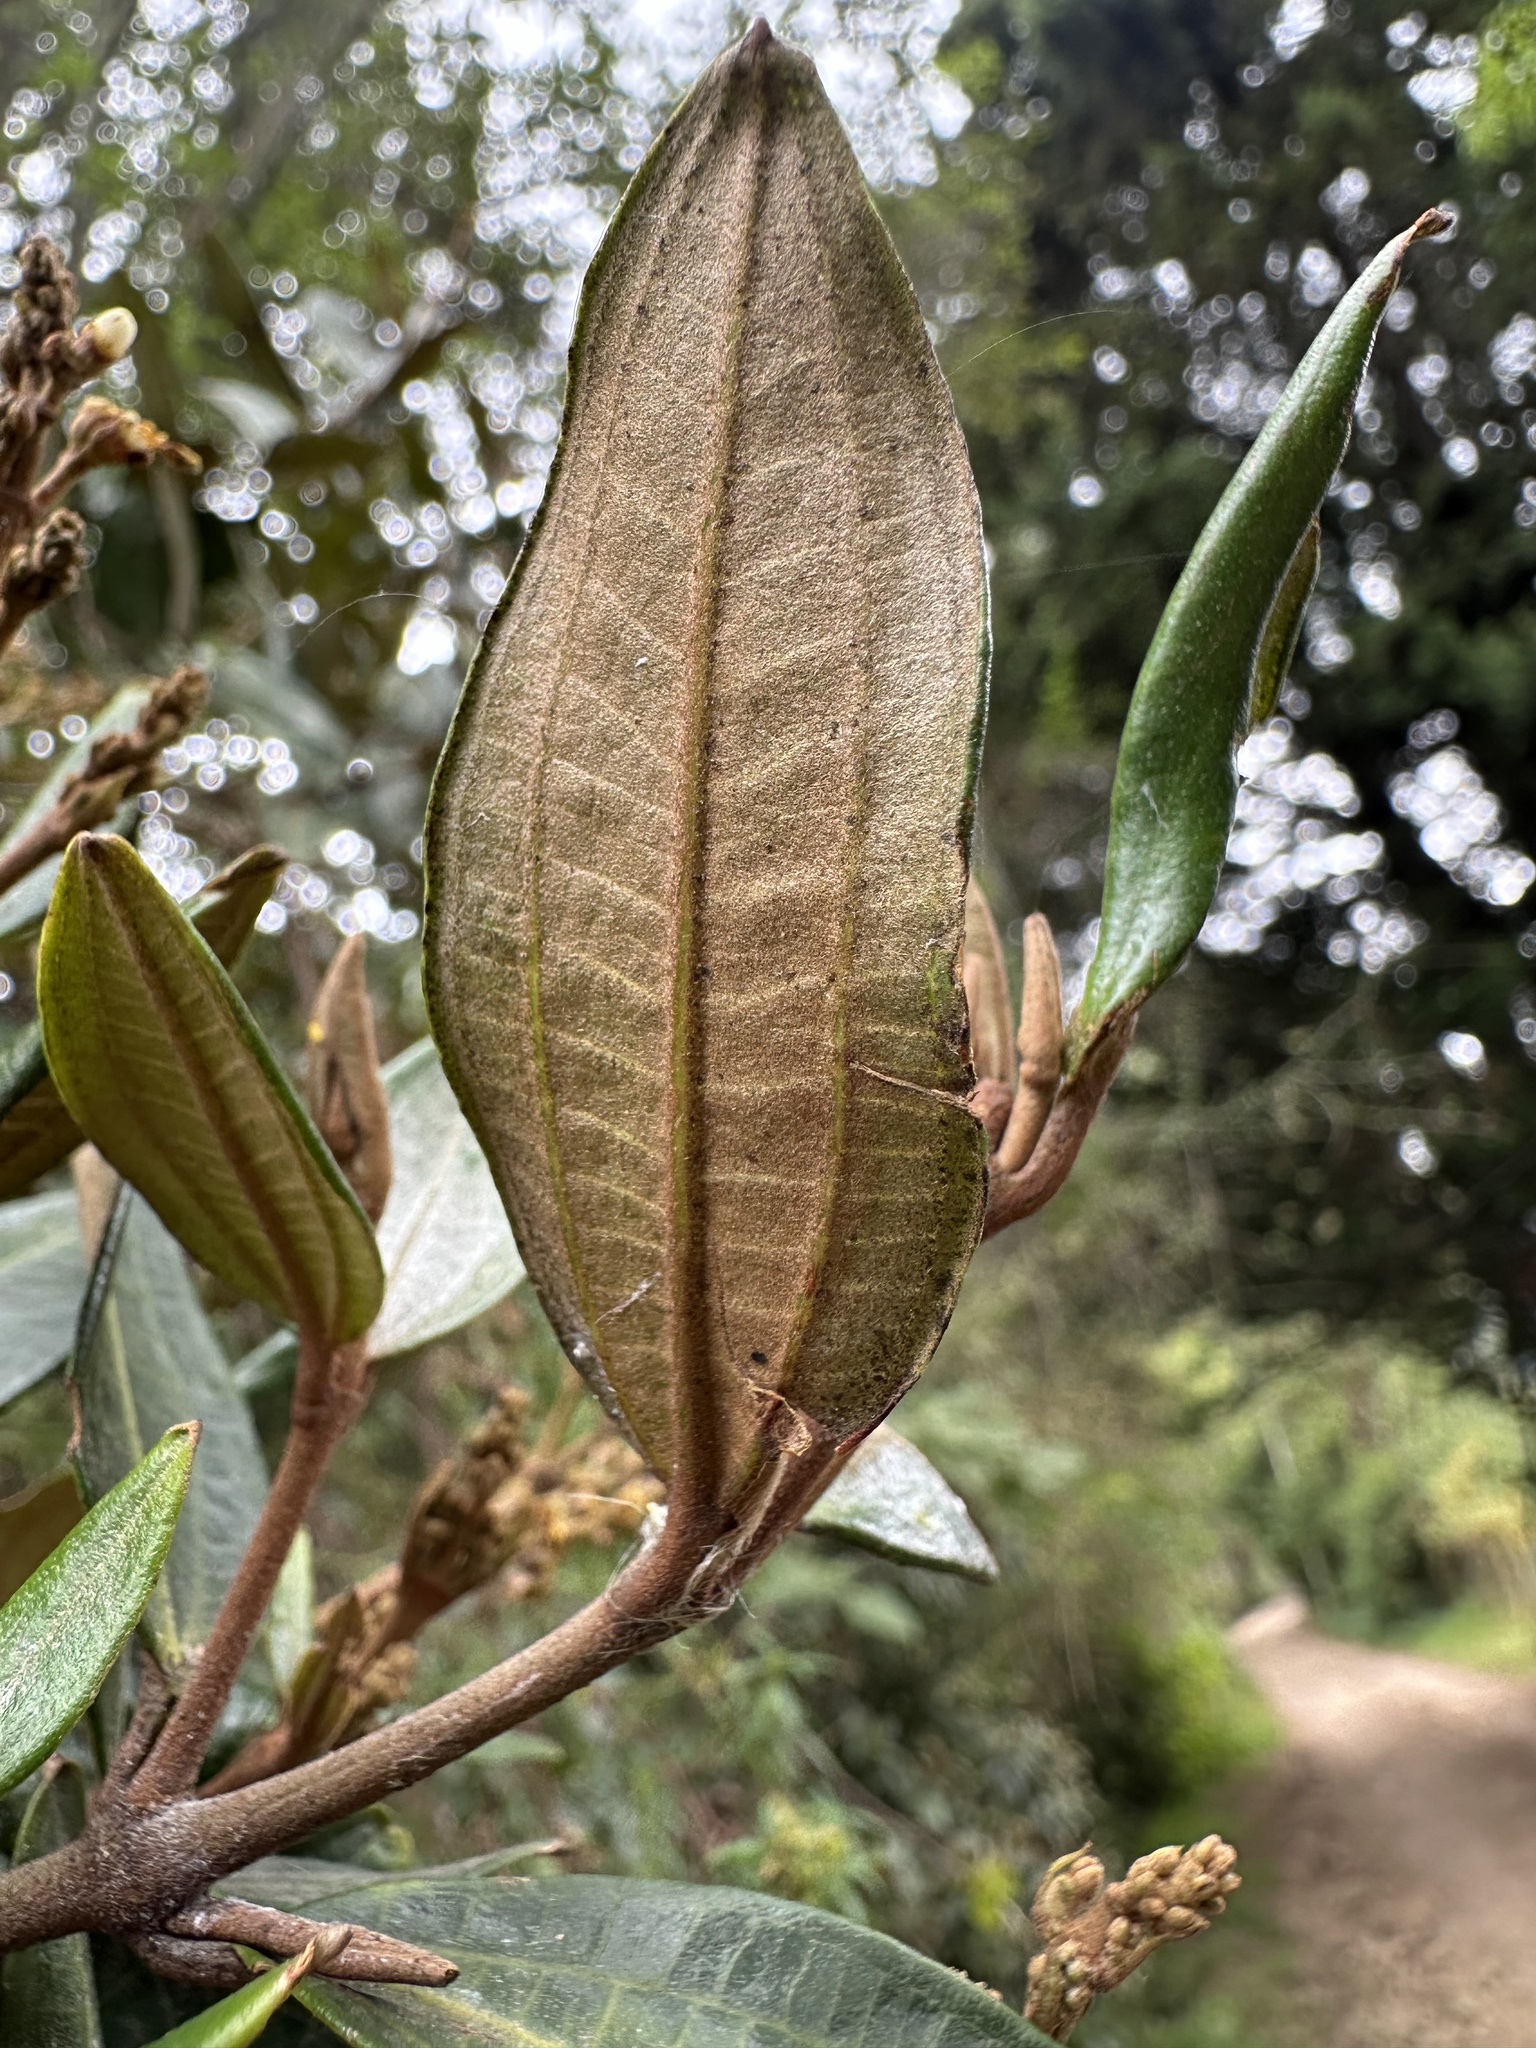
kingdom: Plantae
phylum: Tracheophyta
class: Magnoliopsida
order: Myrtales
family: Melastomataceae
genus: Miconia
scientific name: Miconia squamulosa
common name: Squamulose maya
